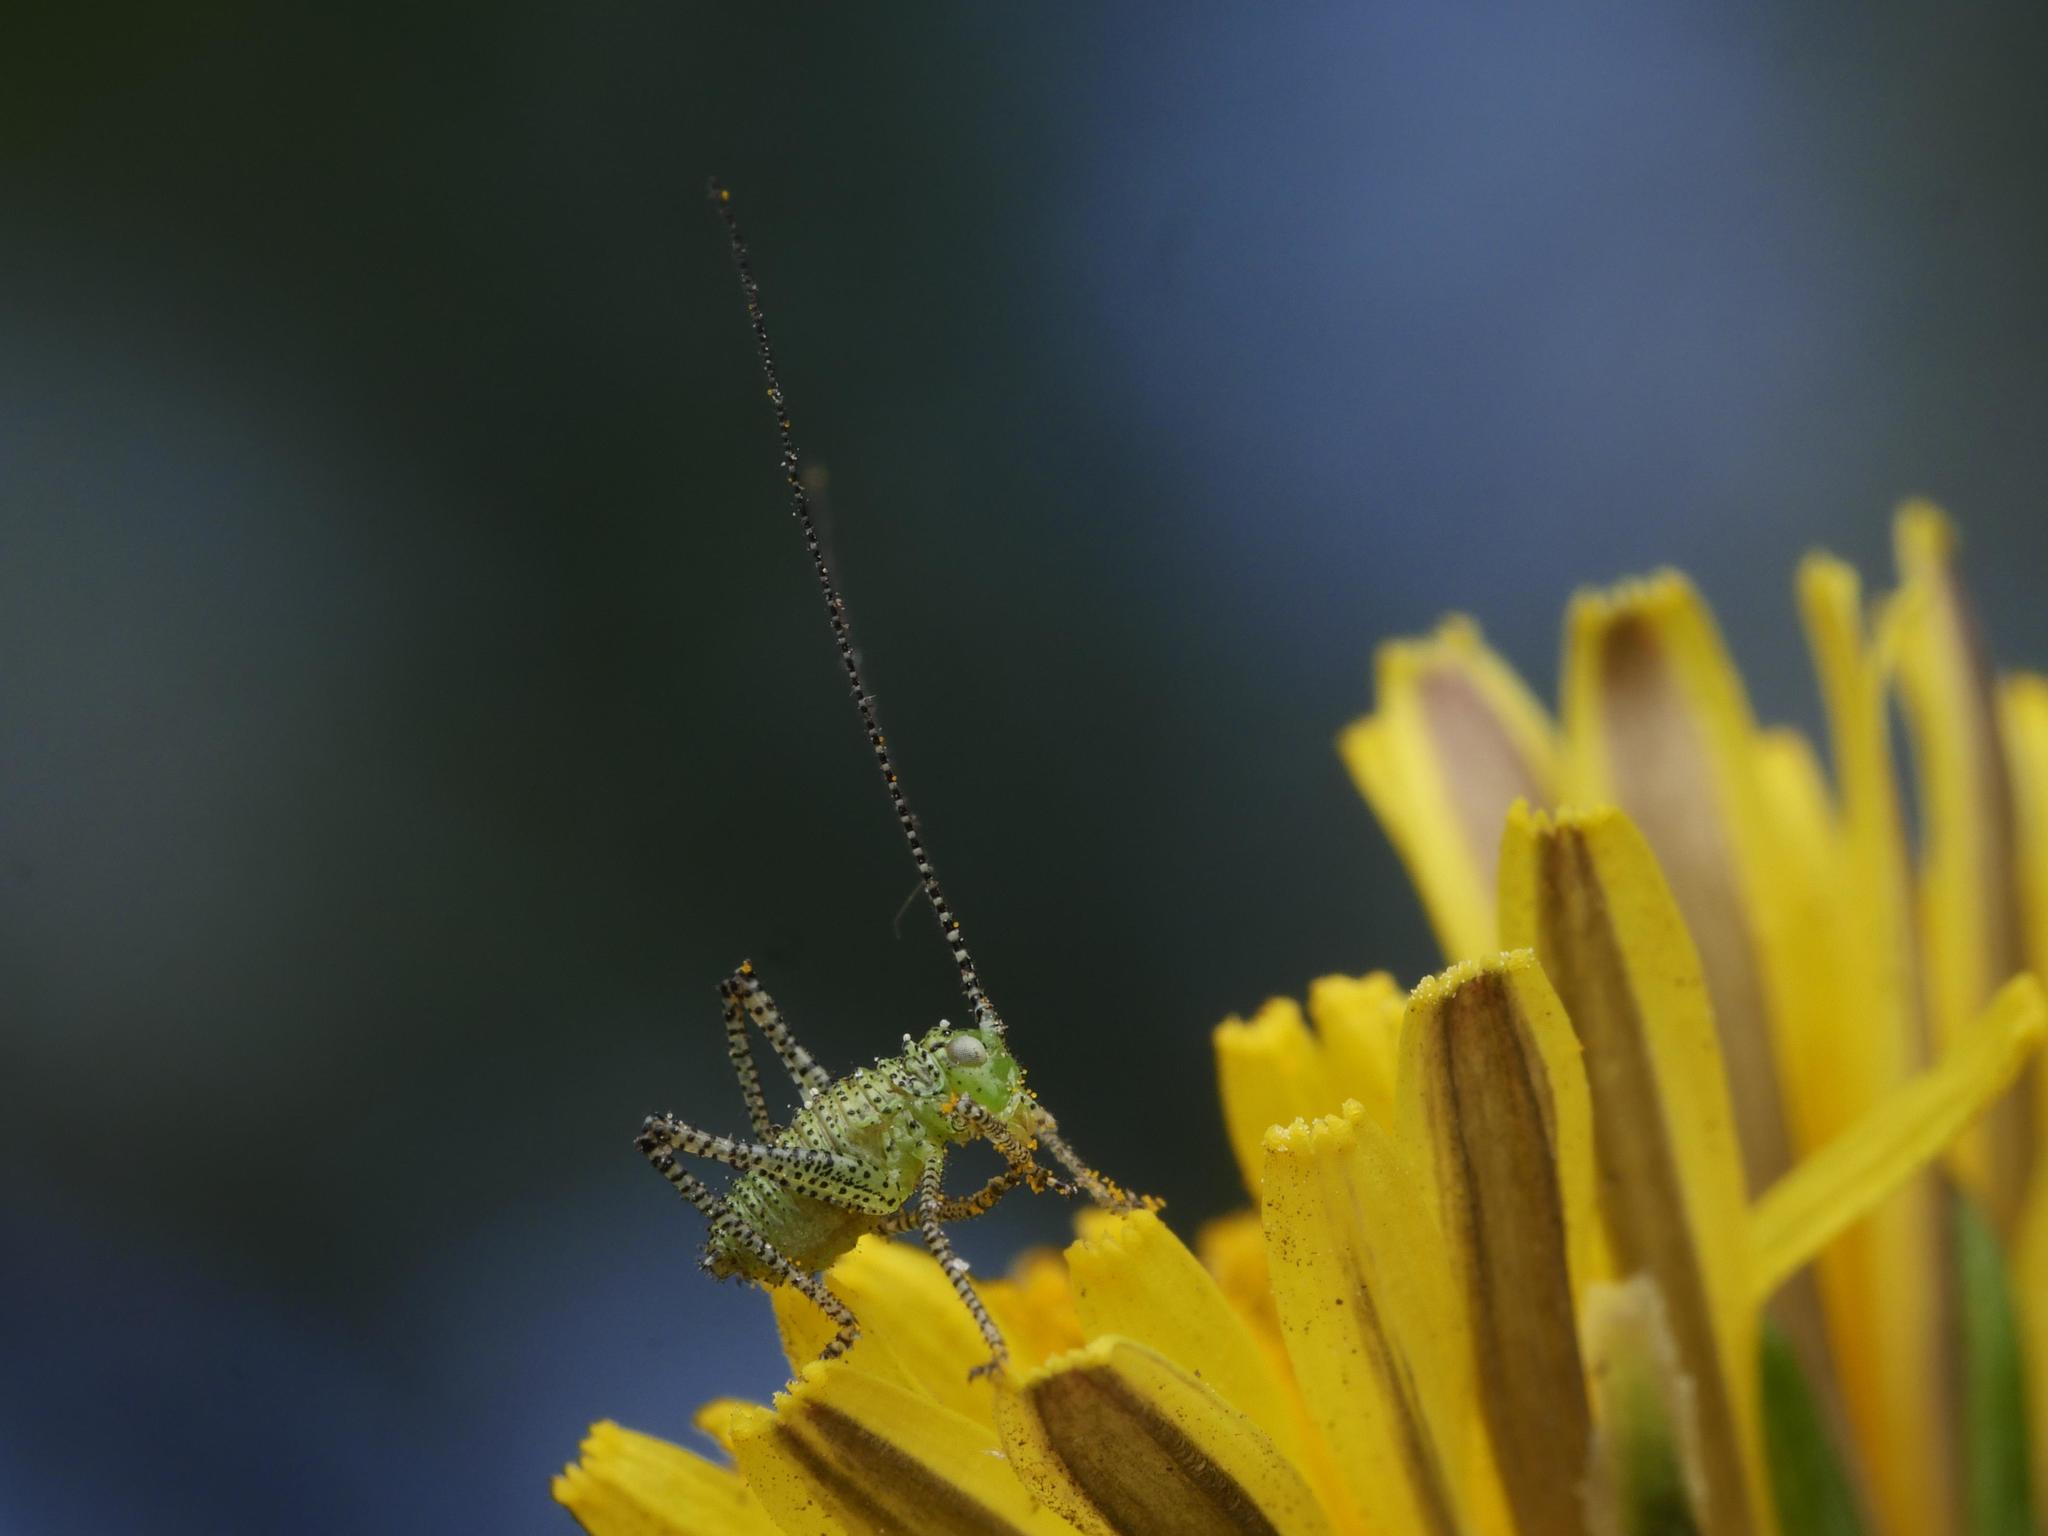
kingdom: Animalia
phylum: Arthropoda
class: Insecta
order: Orthoptera
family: Tettigoniidae
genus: Leptophyes
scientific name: Leptophyes punctatissima
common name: Speckled bush-cricket
